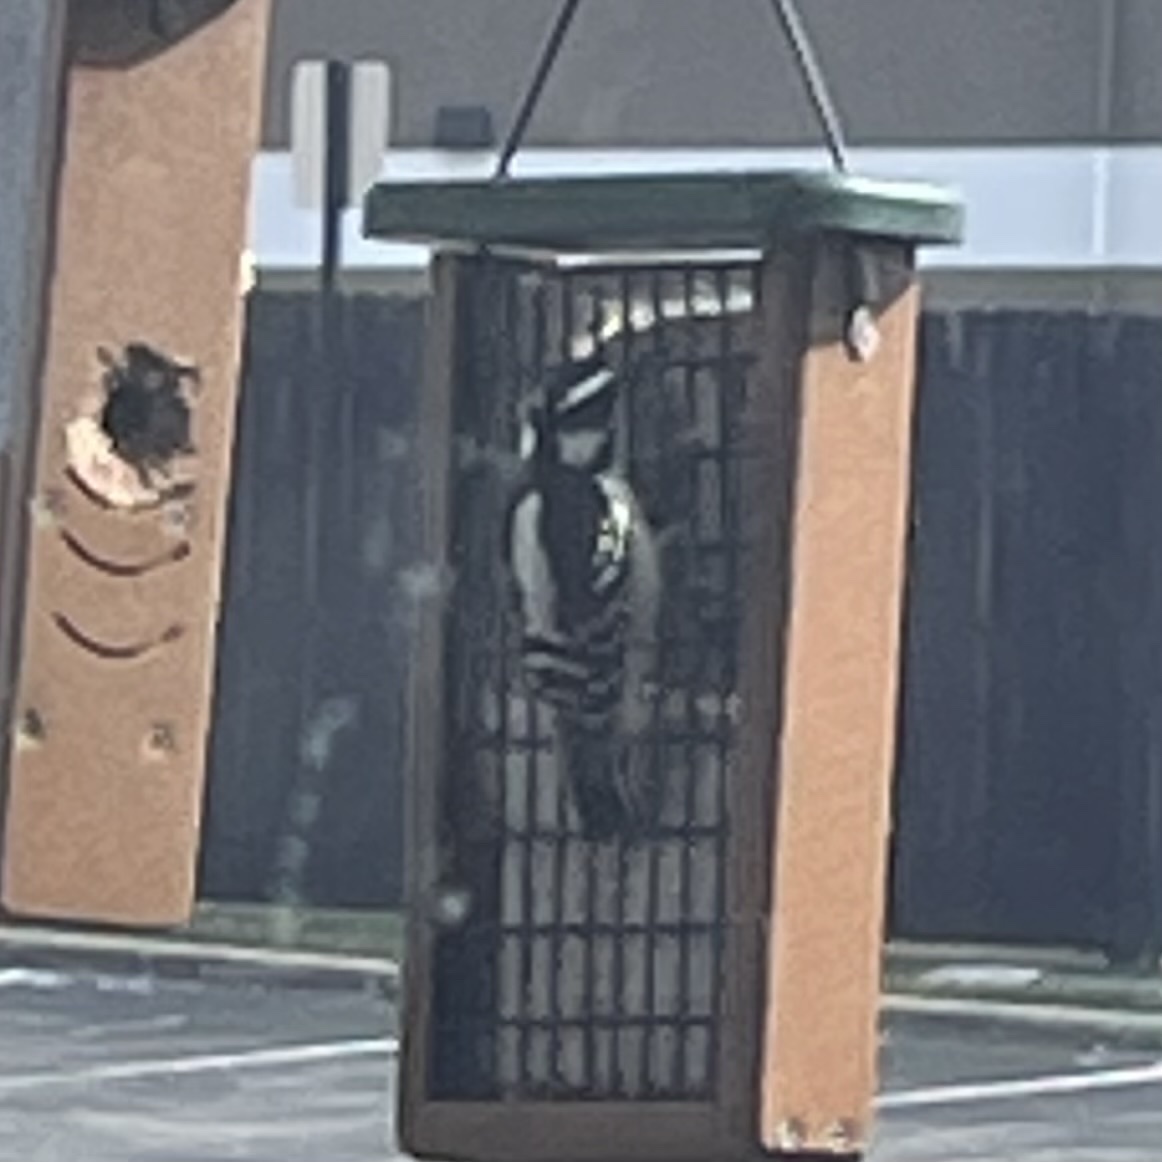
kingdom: Animalia
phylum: Chordata
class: Aves
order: Piciformes
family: Picidae
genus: Dryobates
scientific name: Dryobates pubescens
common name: Downy woodpecker
